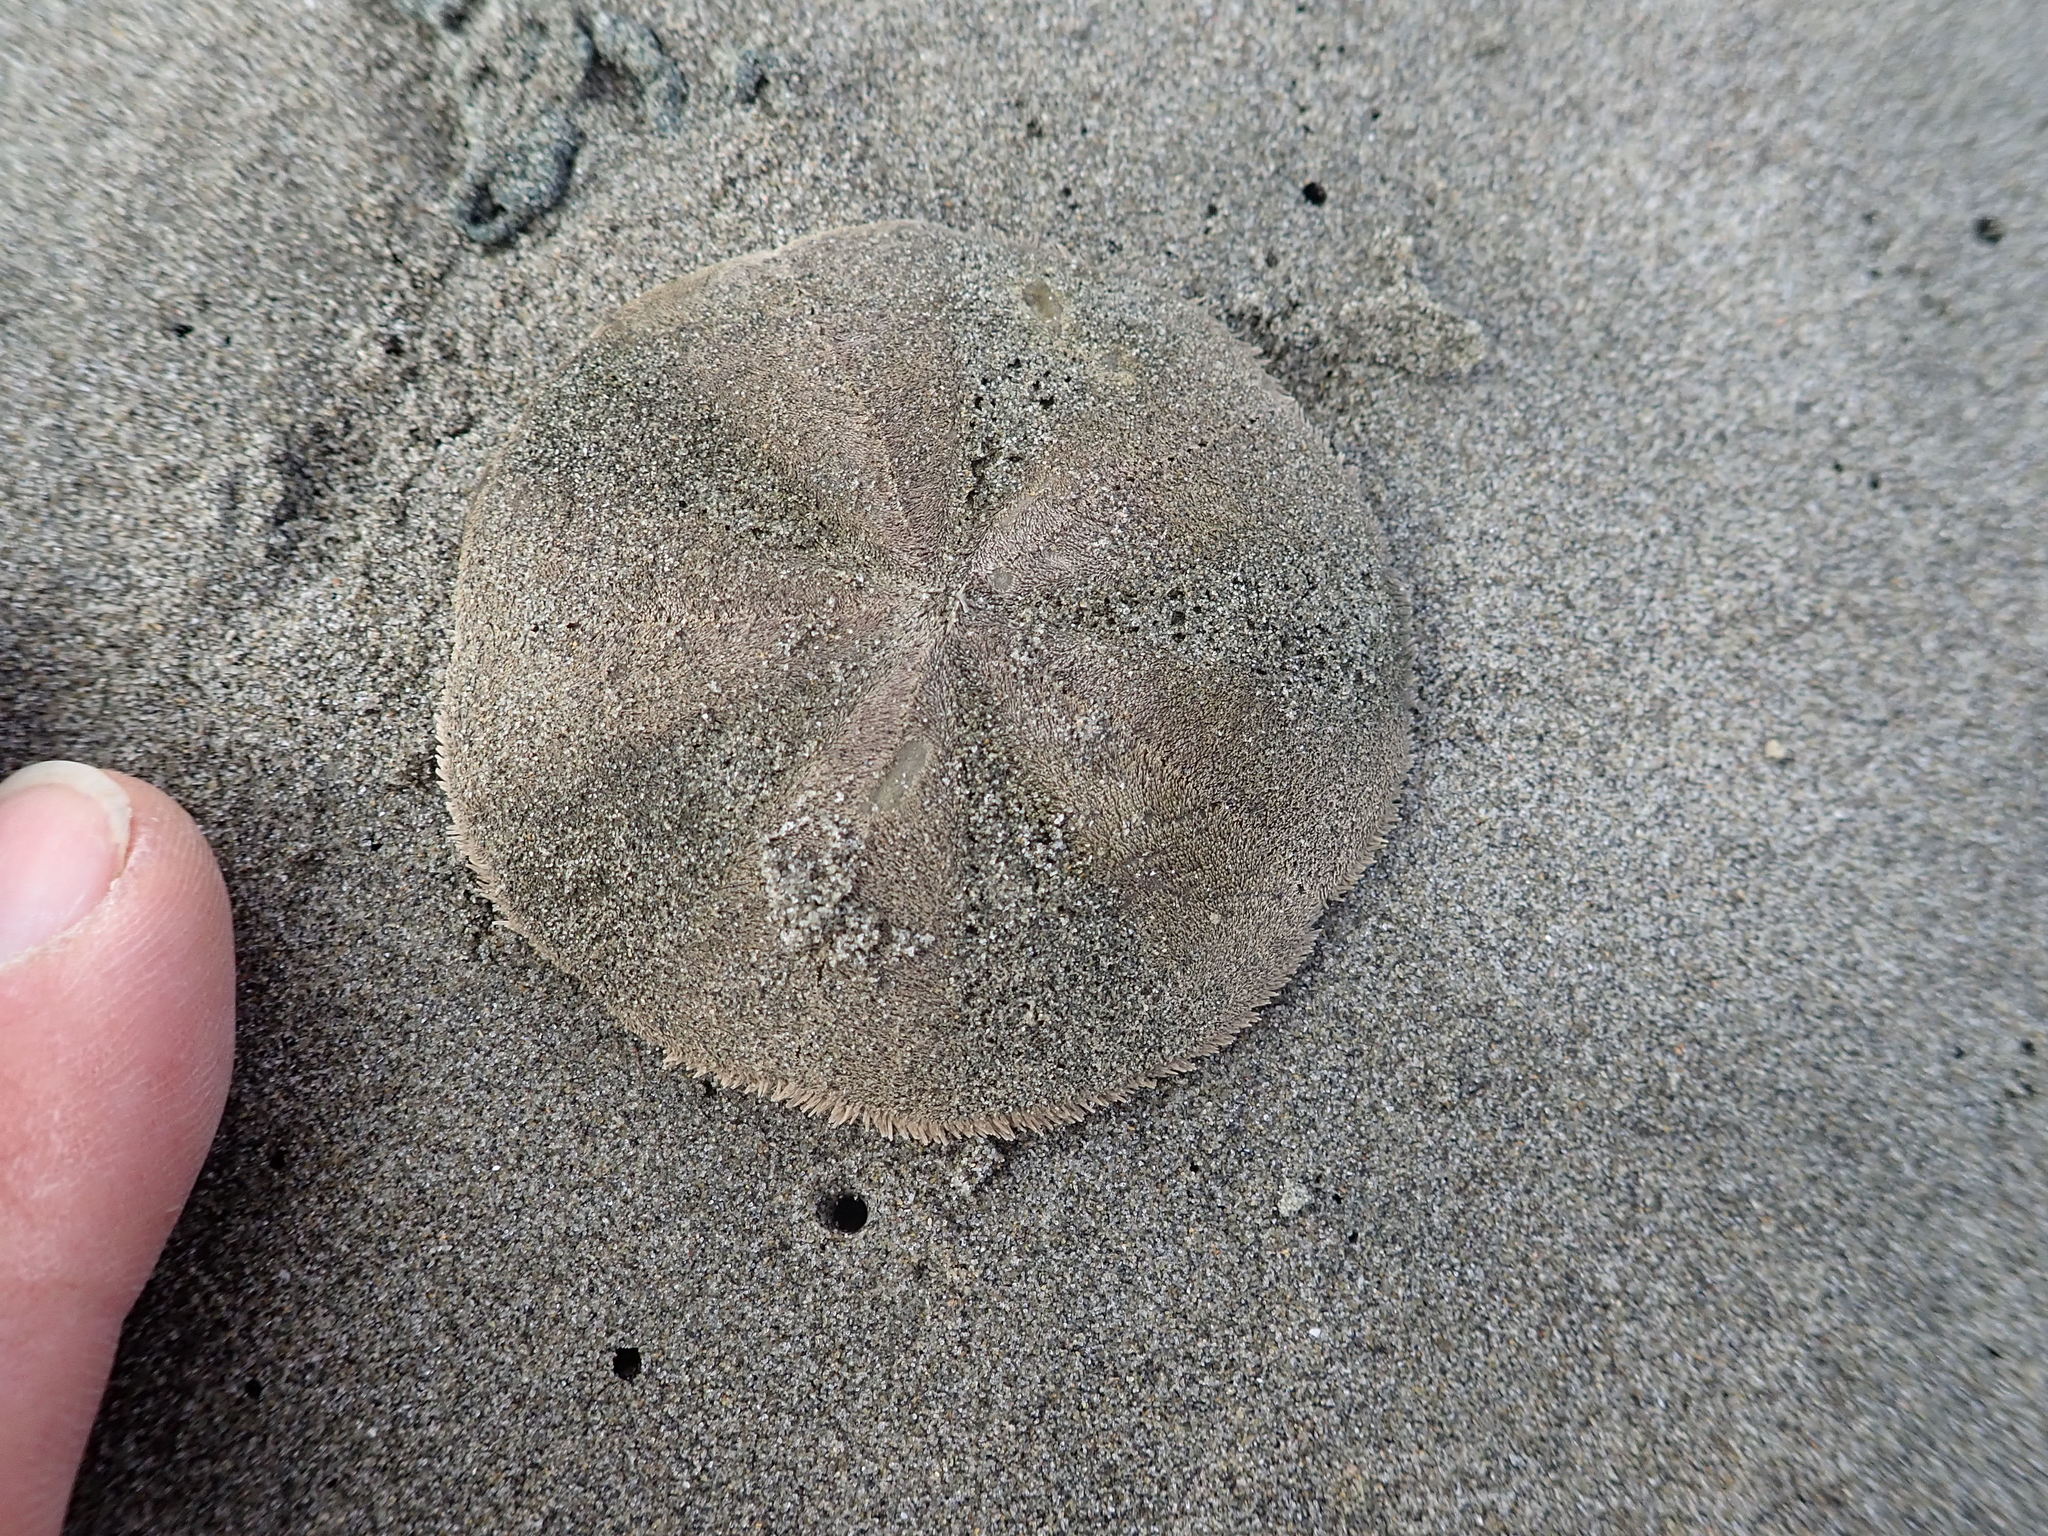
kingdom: Animalia
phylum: Echinodermata
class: Echinoidea
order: Clypeasteroida
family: Clypeasteridae
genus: Fellaster
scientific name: Fellaster zelandiae
